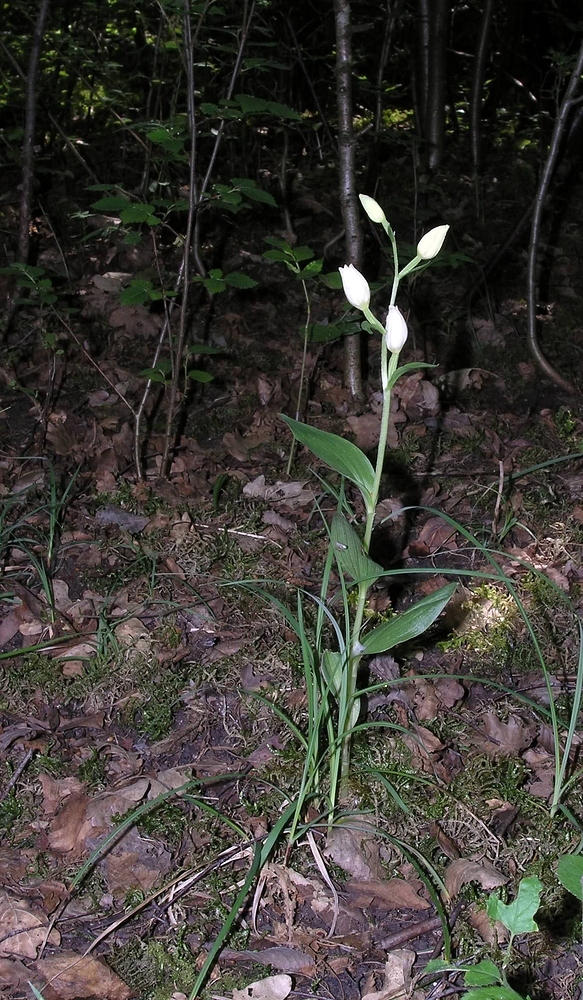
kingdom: Plantae
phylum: Tracheophyta
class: Liliopsida
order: Asparagales
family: Orchidaceae
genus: Cephalanthera
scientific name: Cephalanthera damasonium
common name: White helleborine
